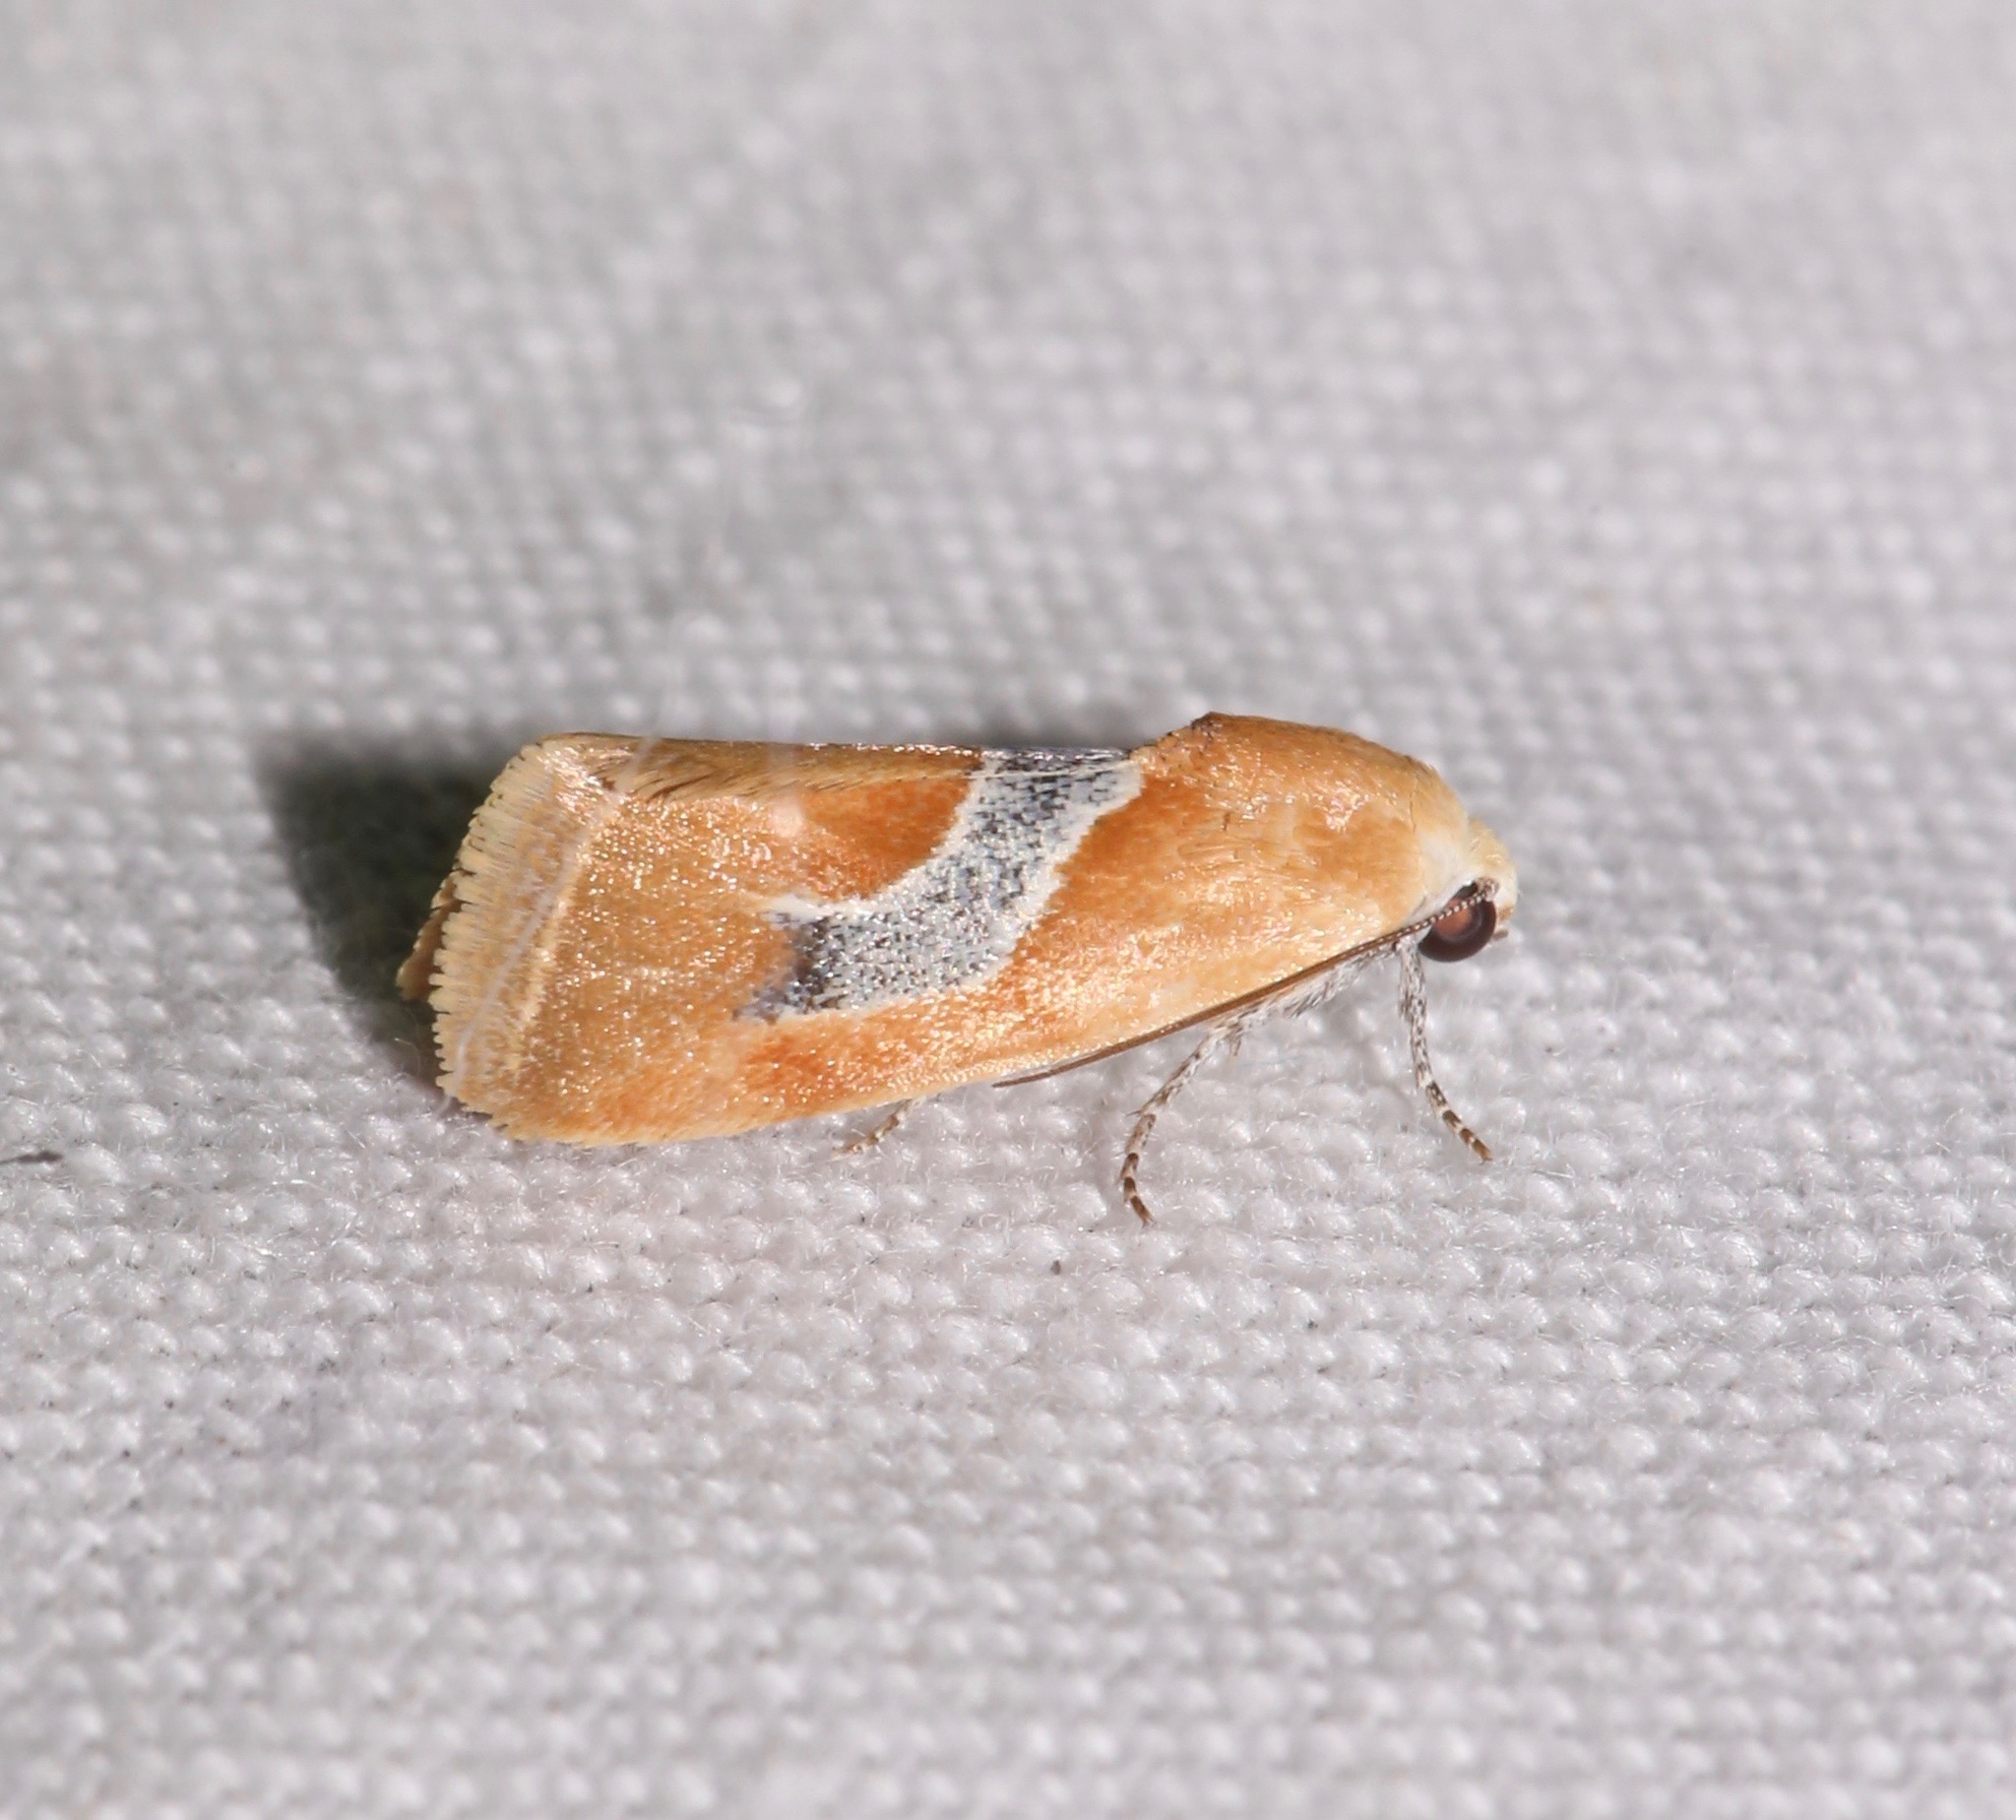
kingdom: Animalia
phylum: Arthropoda
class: Insecta
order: Lepidoptera
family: Noctuidae
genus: Ponometia
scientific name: Ponometia venustula
